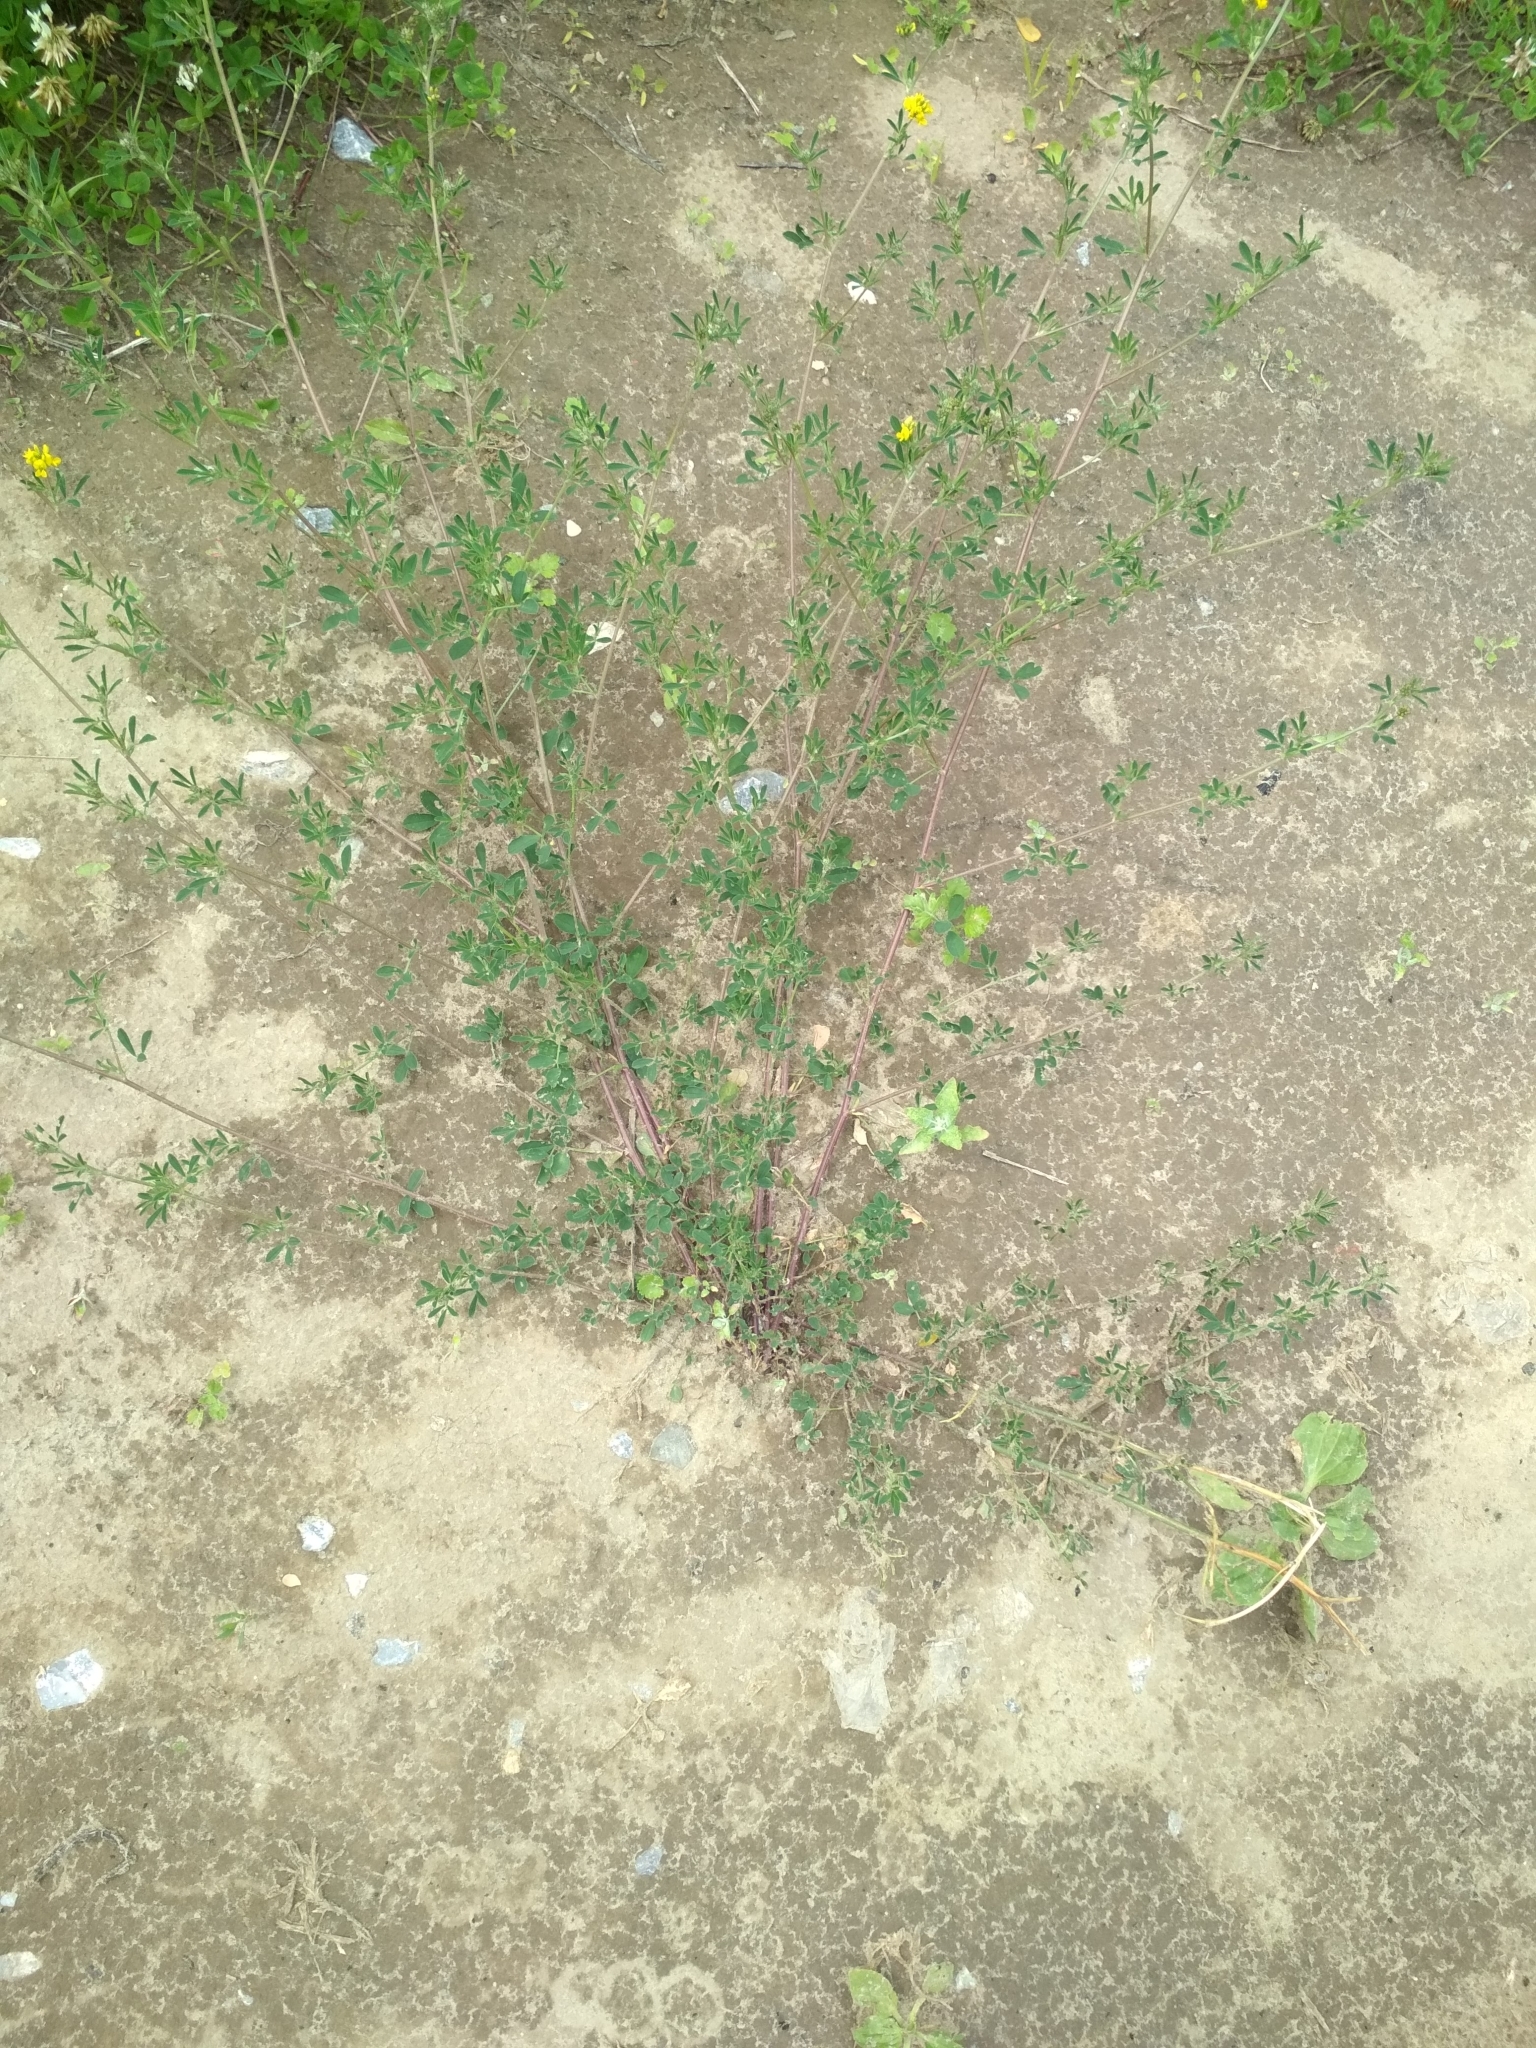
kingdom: Plantae
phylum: Tracheophyta
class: Magnoliopsida
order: Fabales
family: Fabaceae
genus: Medicago
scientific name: Medicago falcata
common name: Sickle medick
